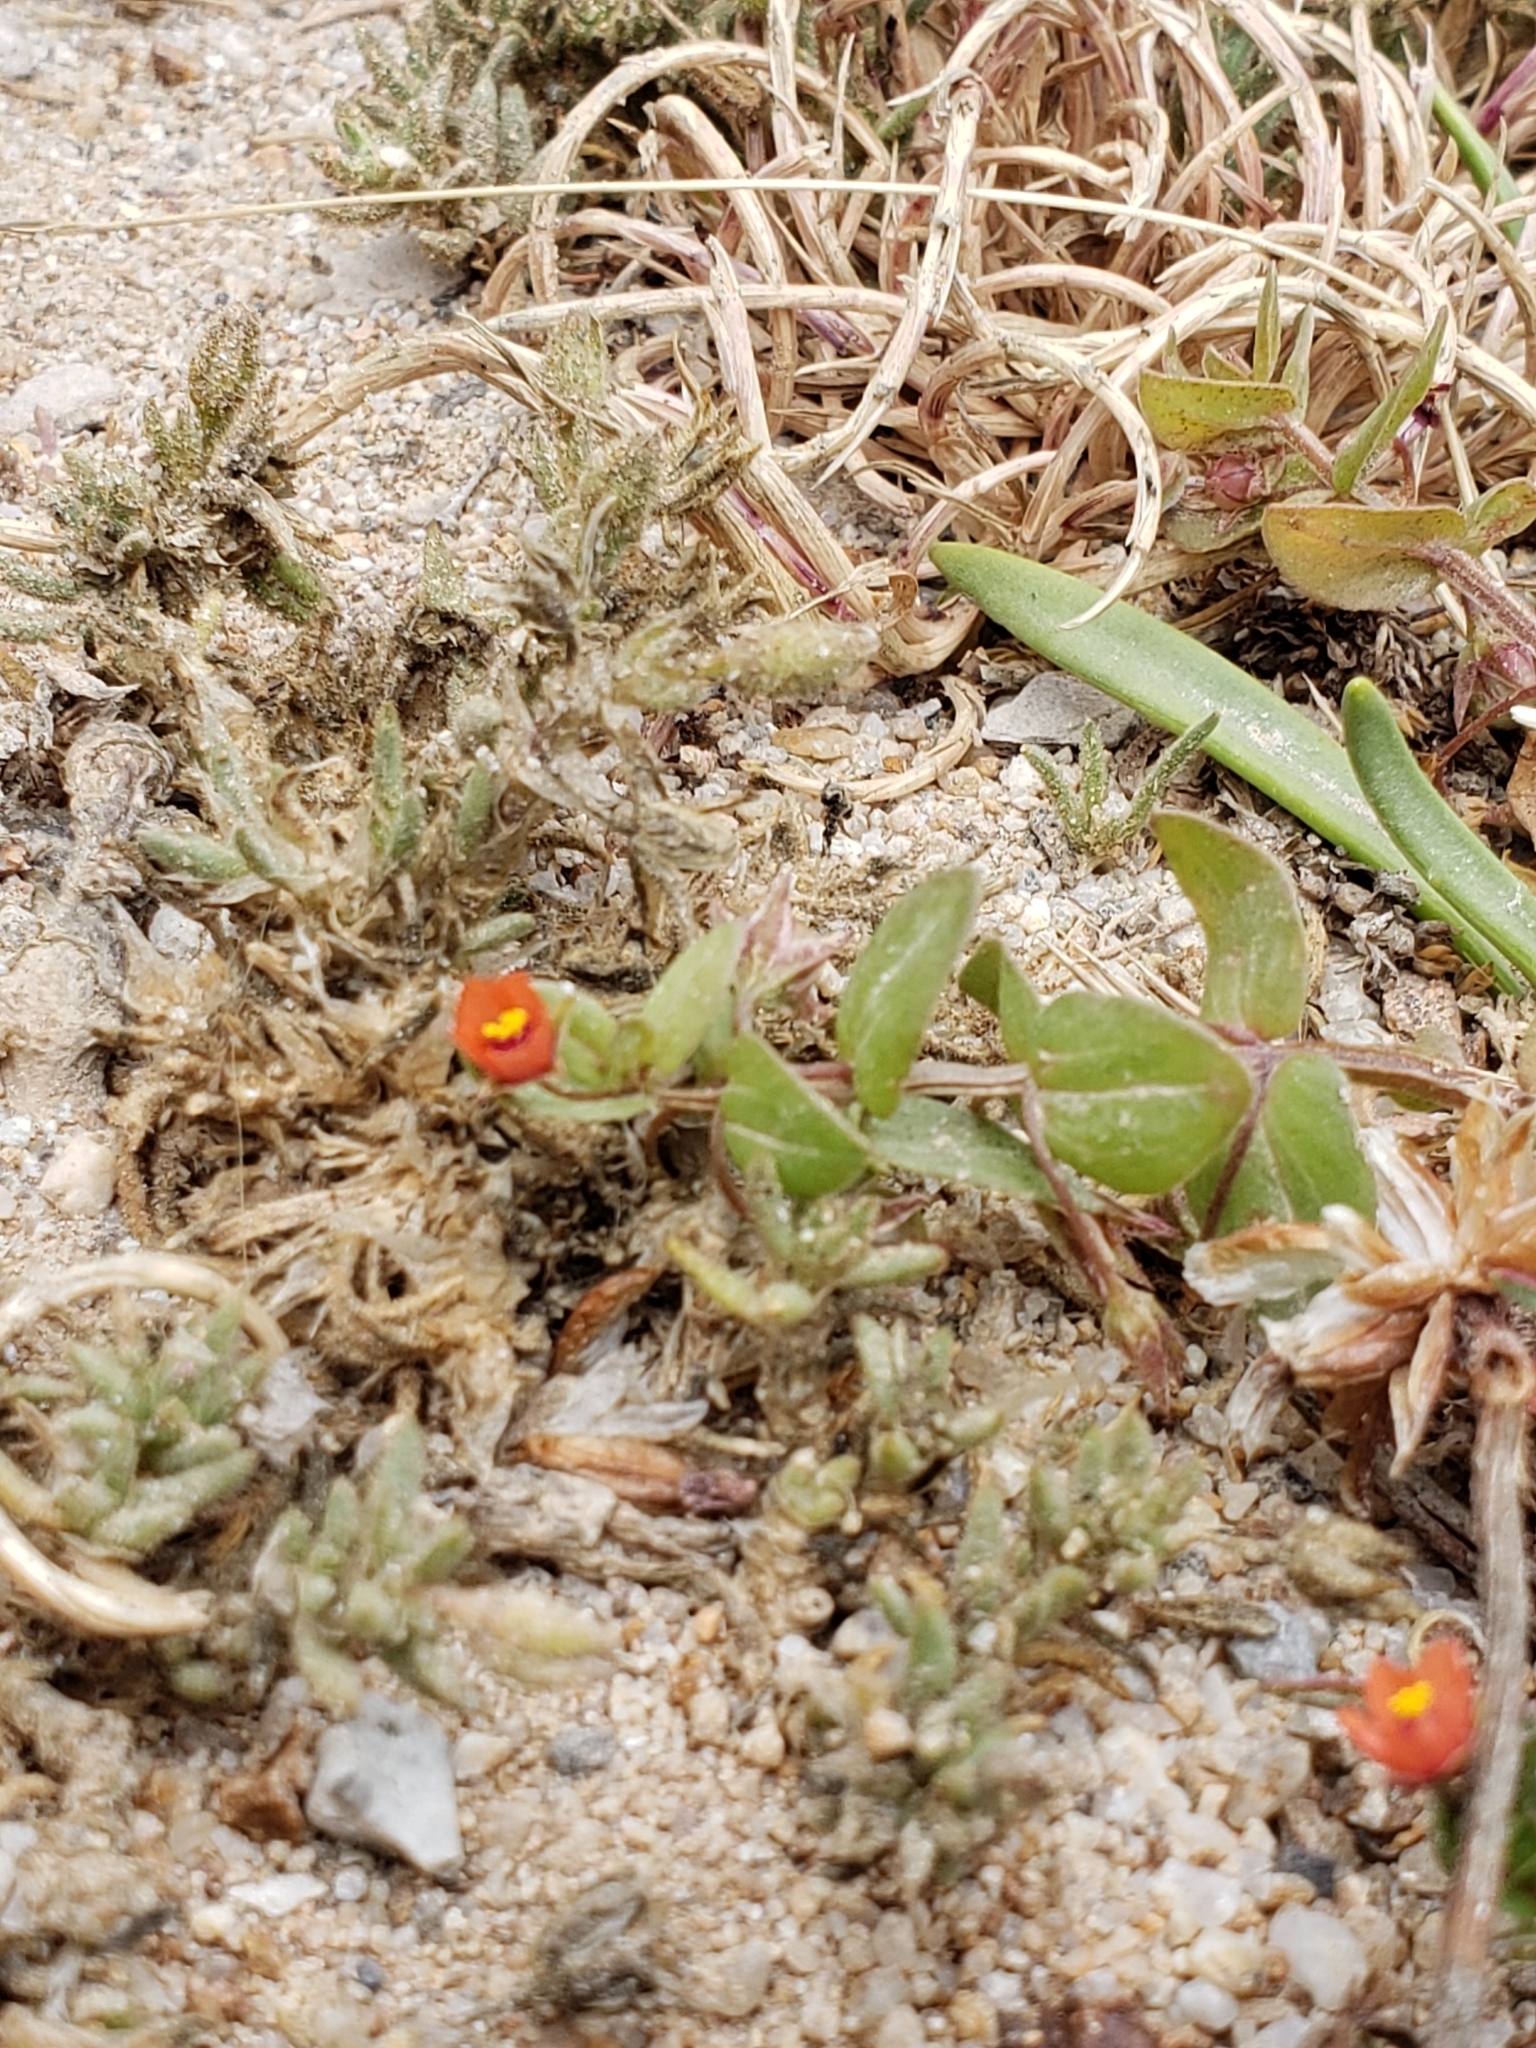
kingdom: Plantae
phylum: Tracheophyta
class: Magnoliopsida
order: Ericales
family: Primulaceae
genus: Lysimachia
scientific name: Lysimachia arvensis
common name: Scarlet pimpernel
